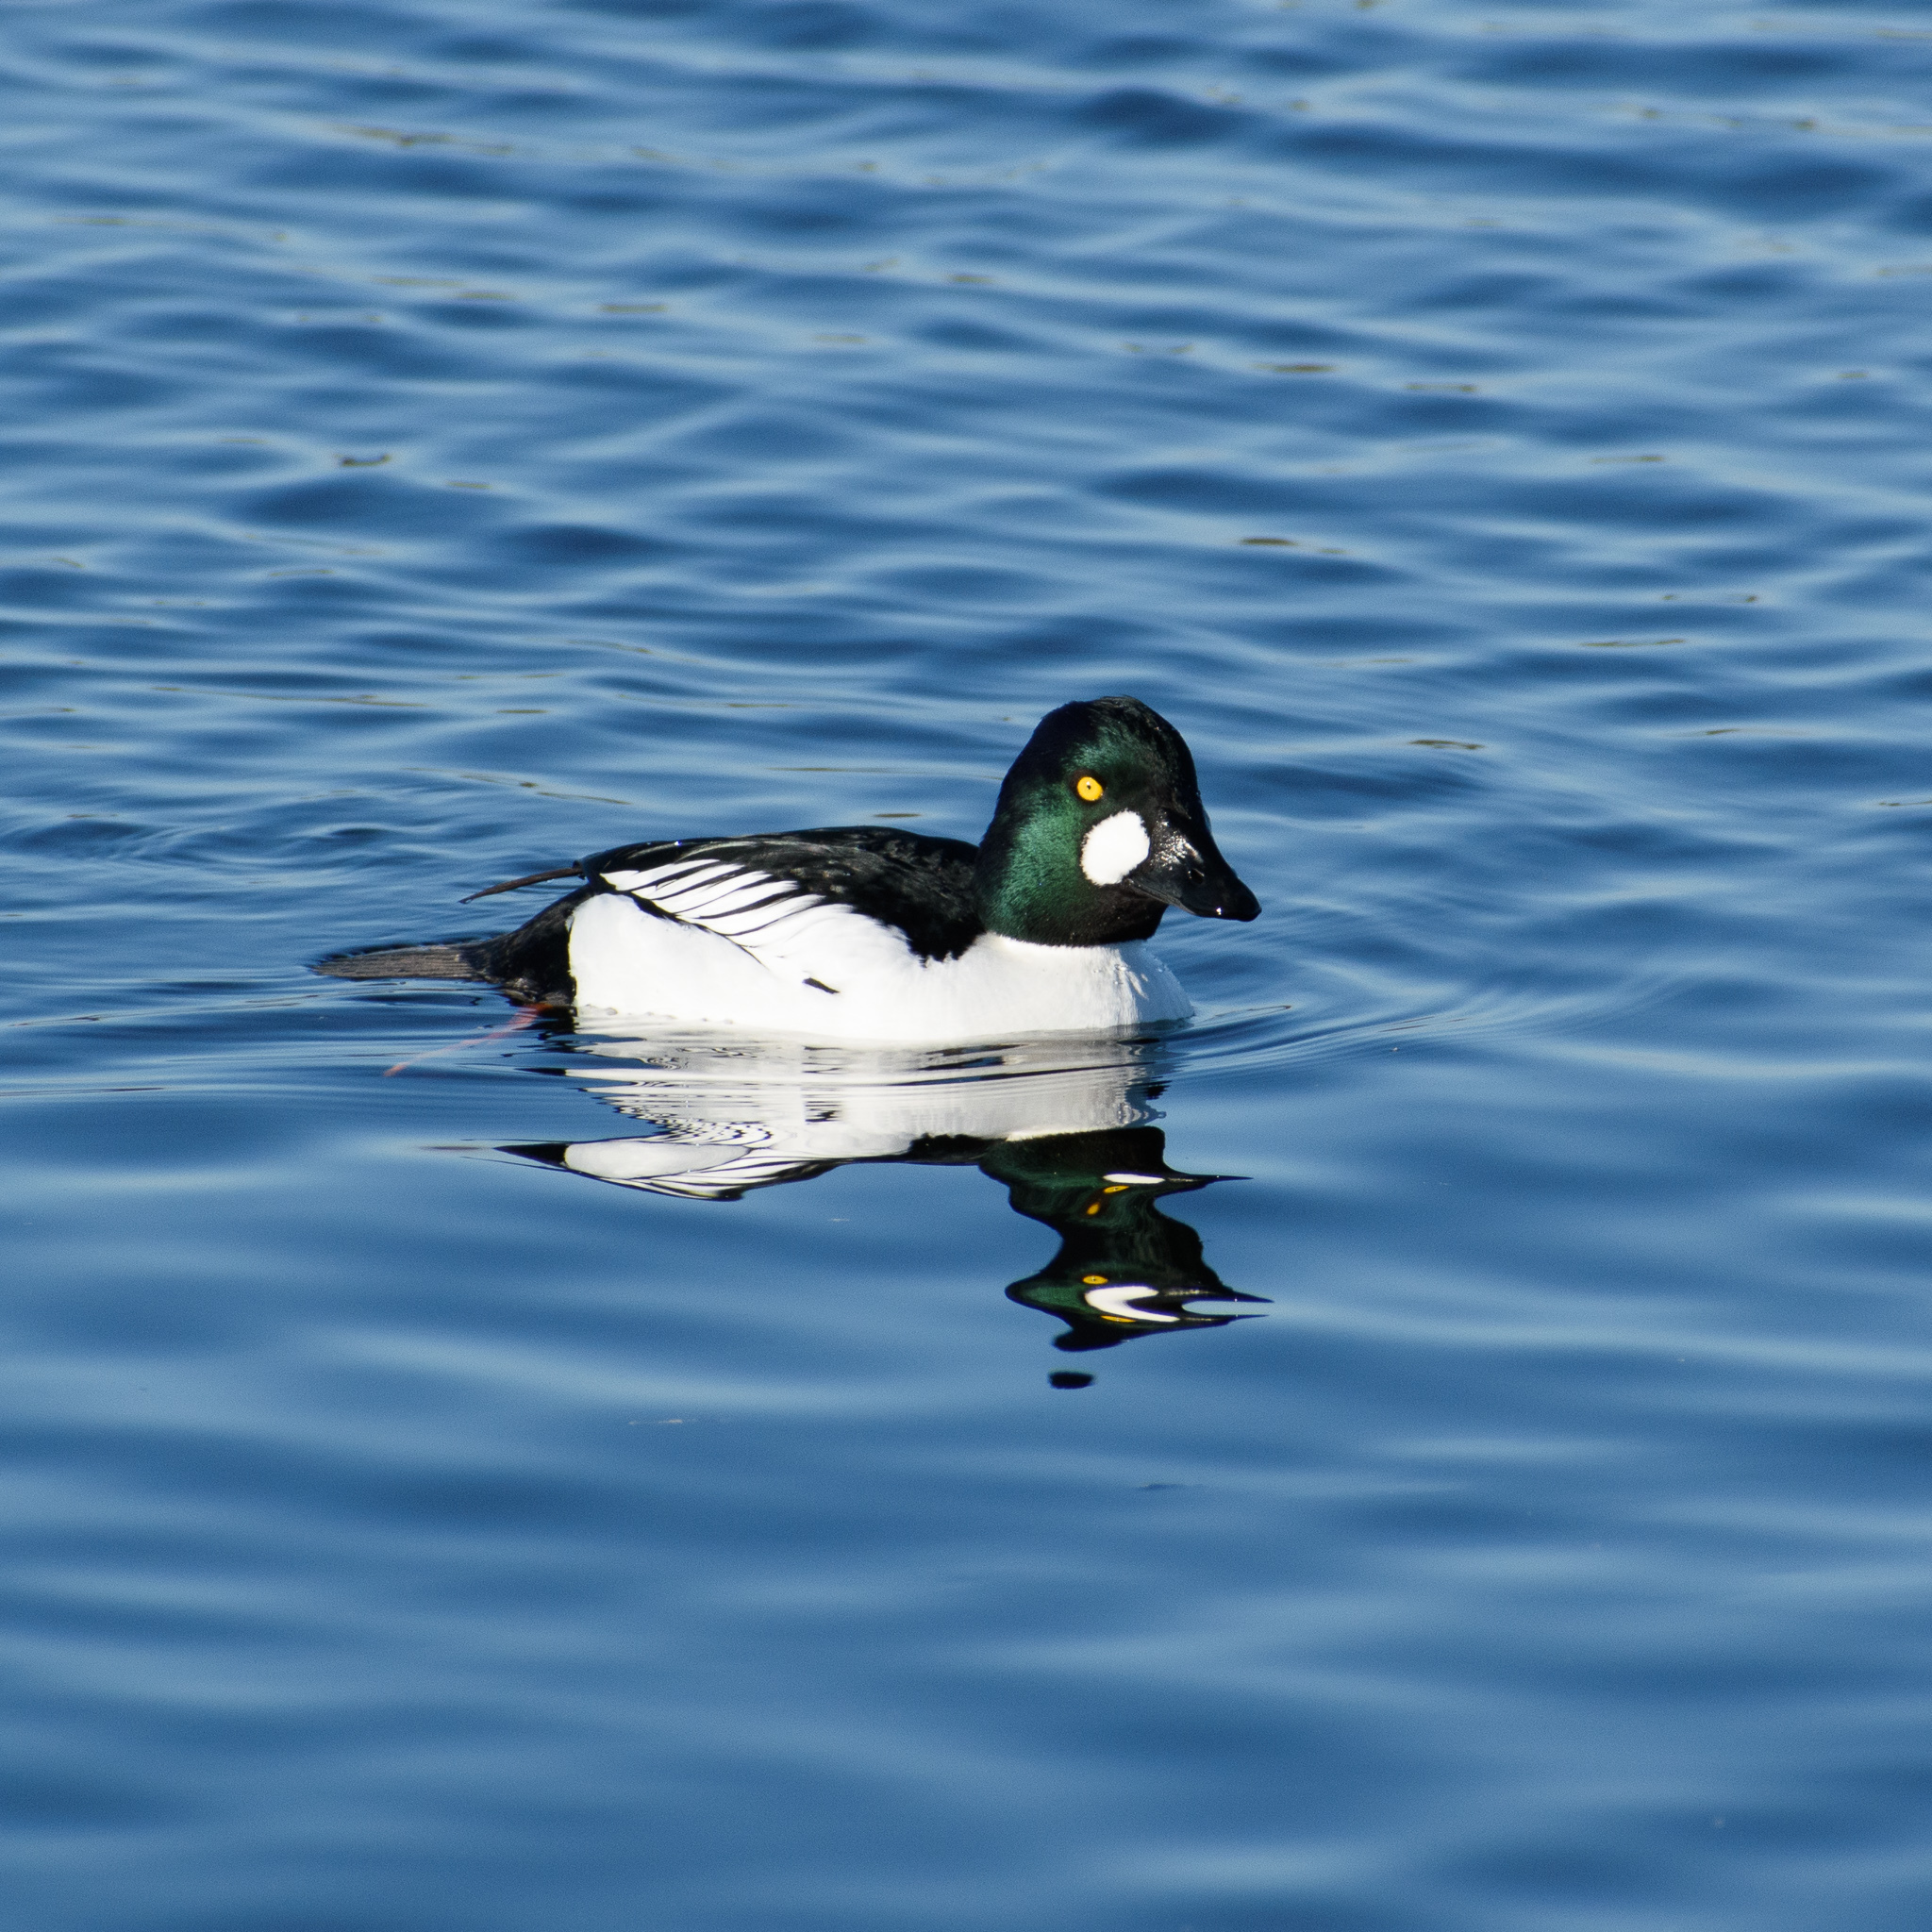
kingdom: Animalia
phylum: Chordata
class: Aves
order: Anseriformes
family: Anatidae
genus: Bucephala
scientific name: Bucephala clangula
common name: Common goldeneye
